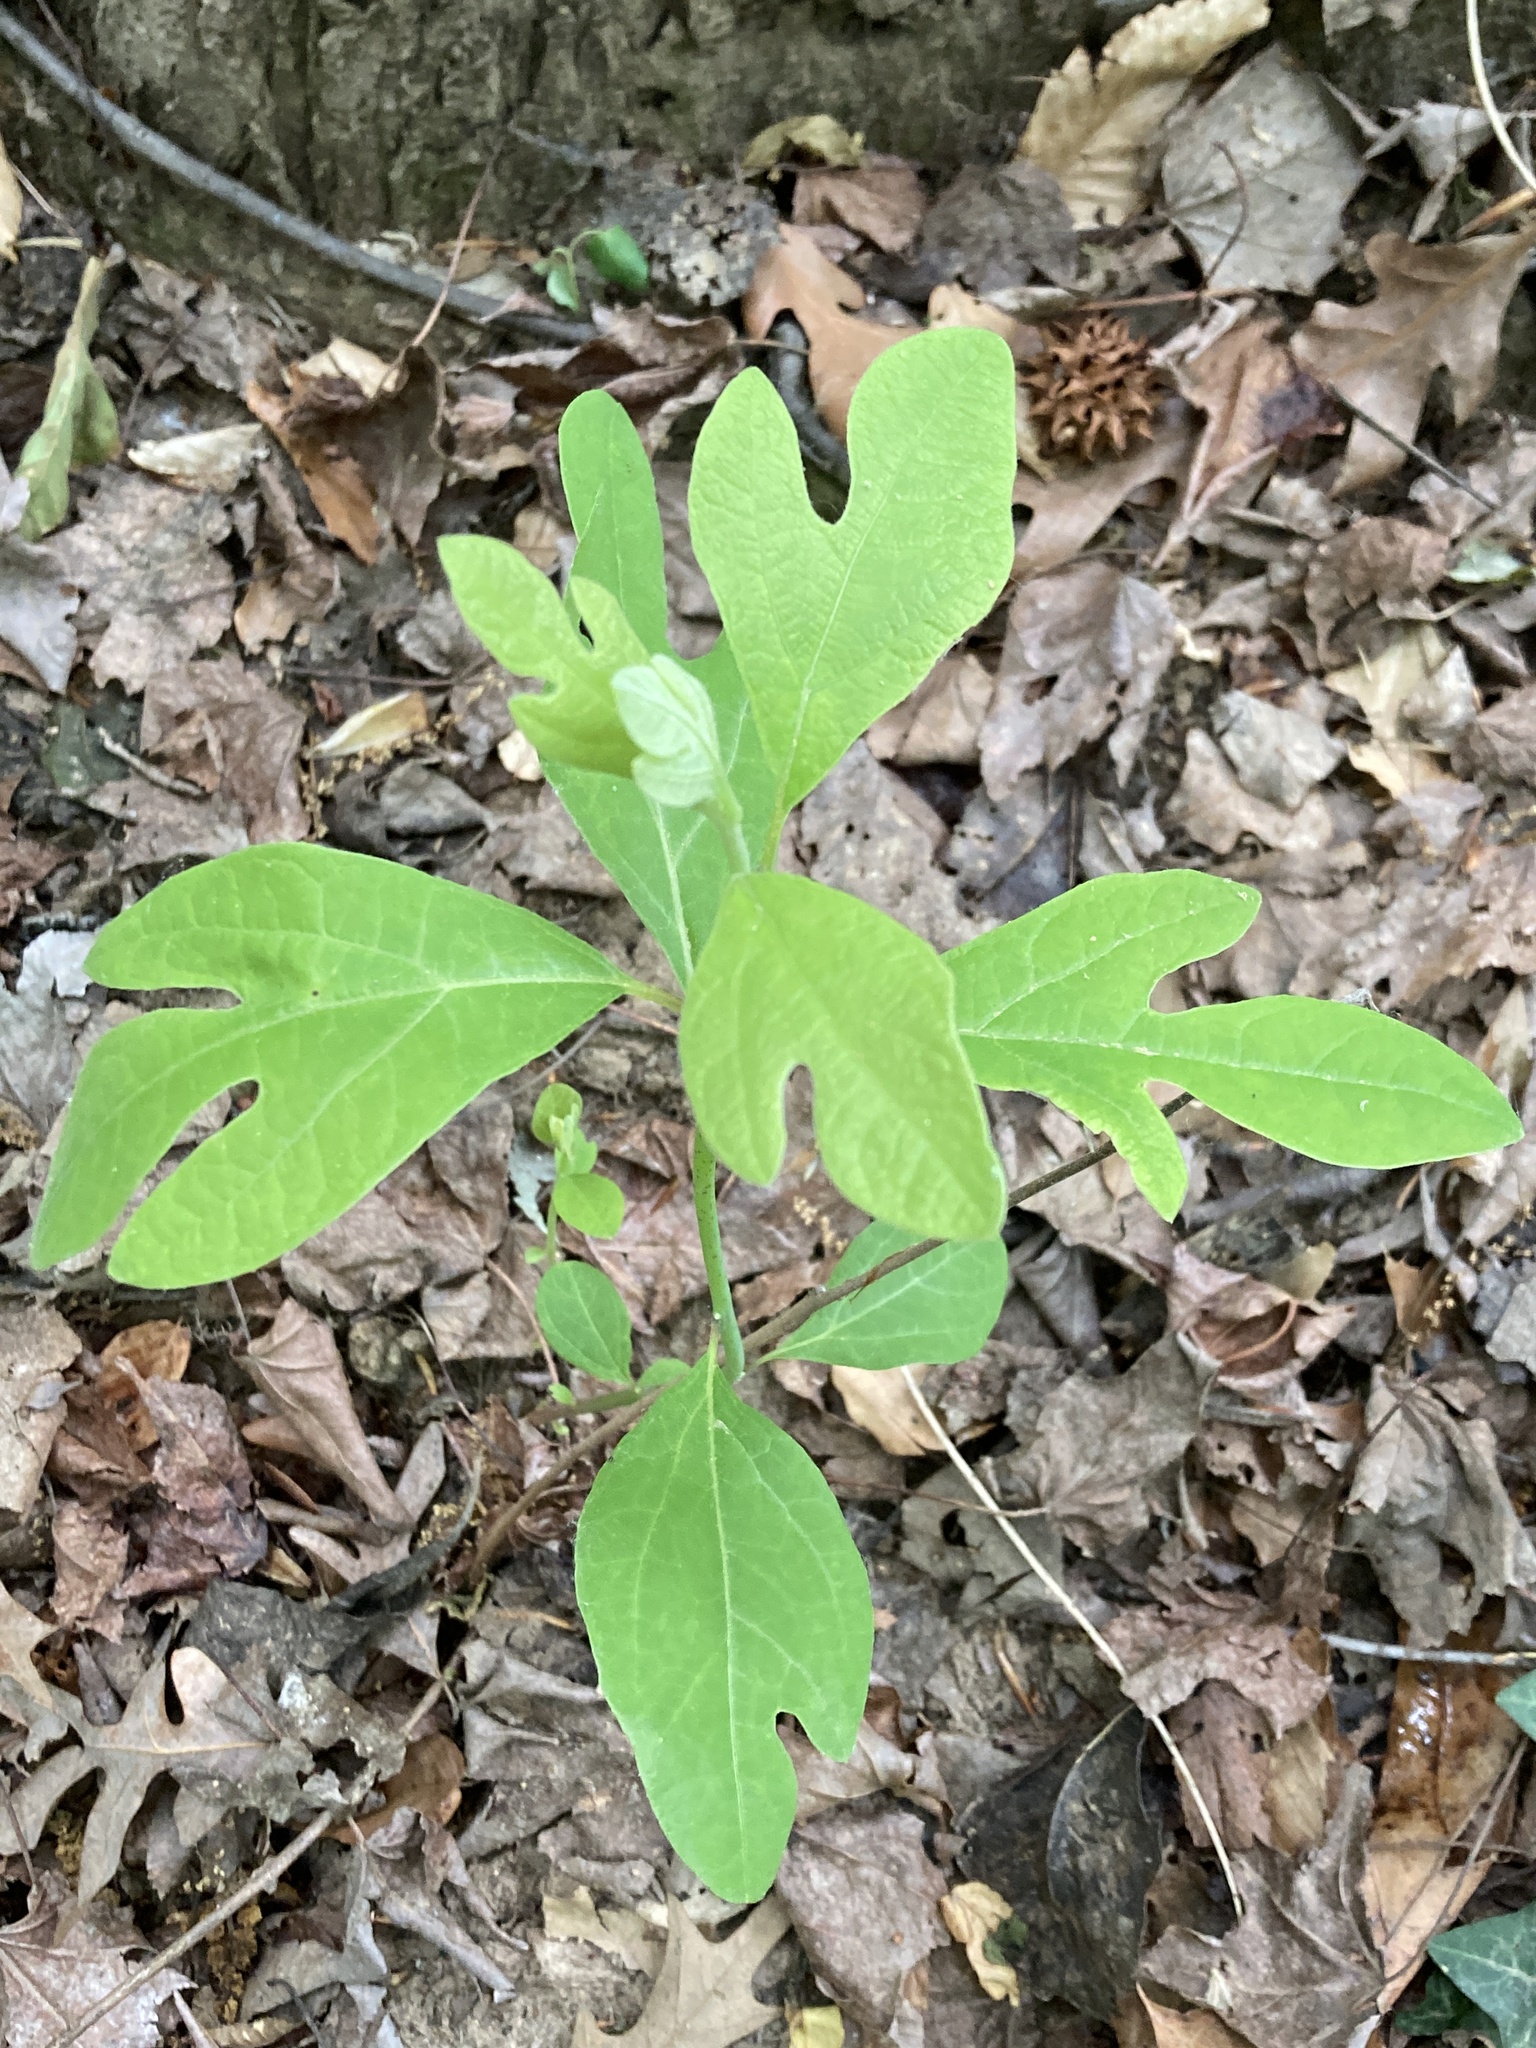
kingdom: Plantae
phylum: Tracheophyta
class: Magnoliopsida
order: Laurales
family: Lauraceae
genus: Sassafras
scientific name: Sassafras albidum
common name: Sassafras
